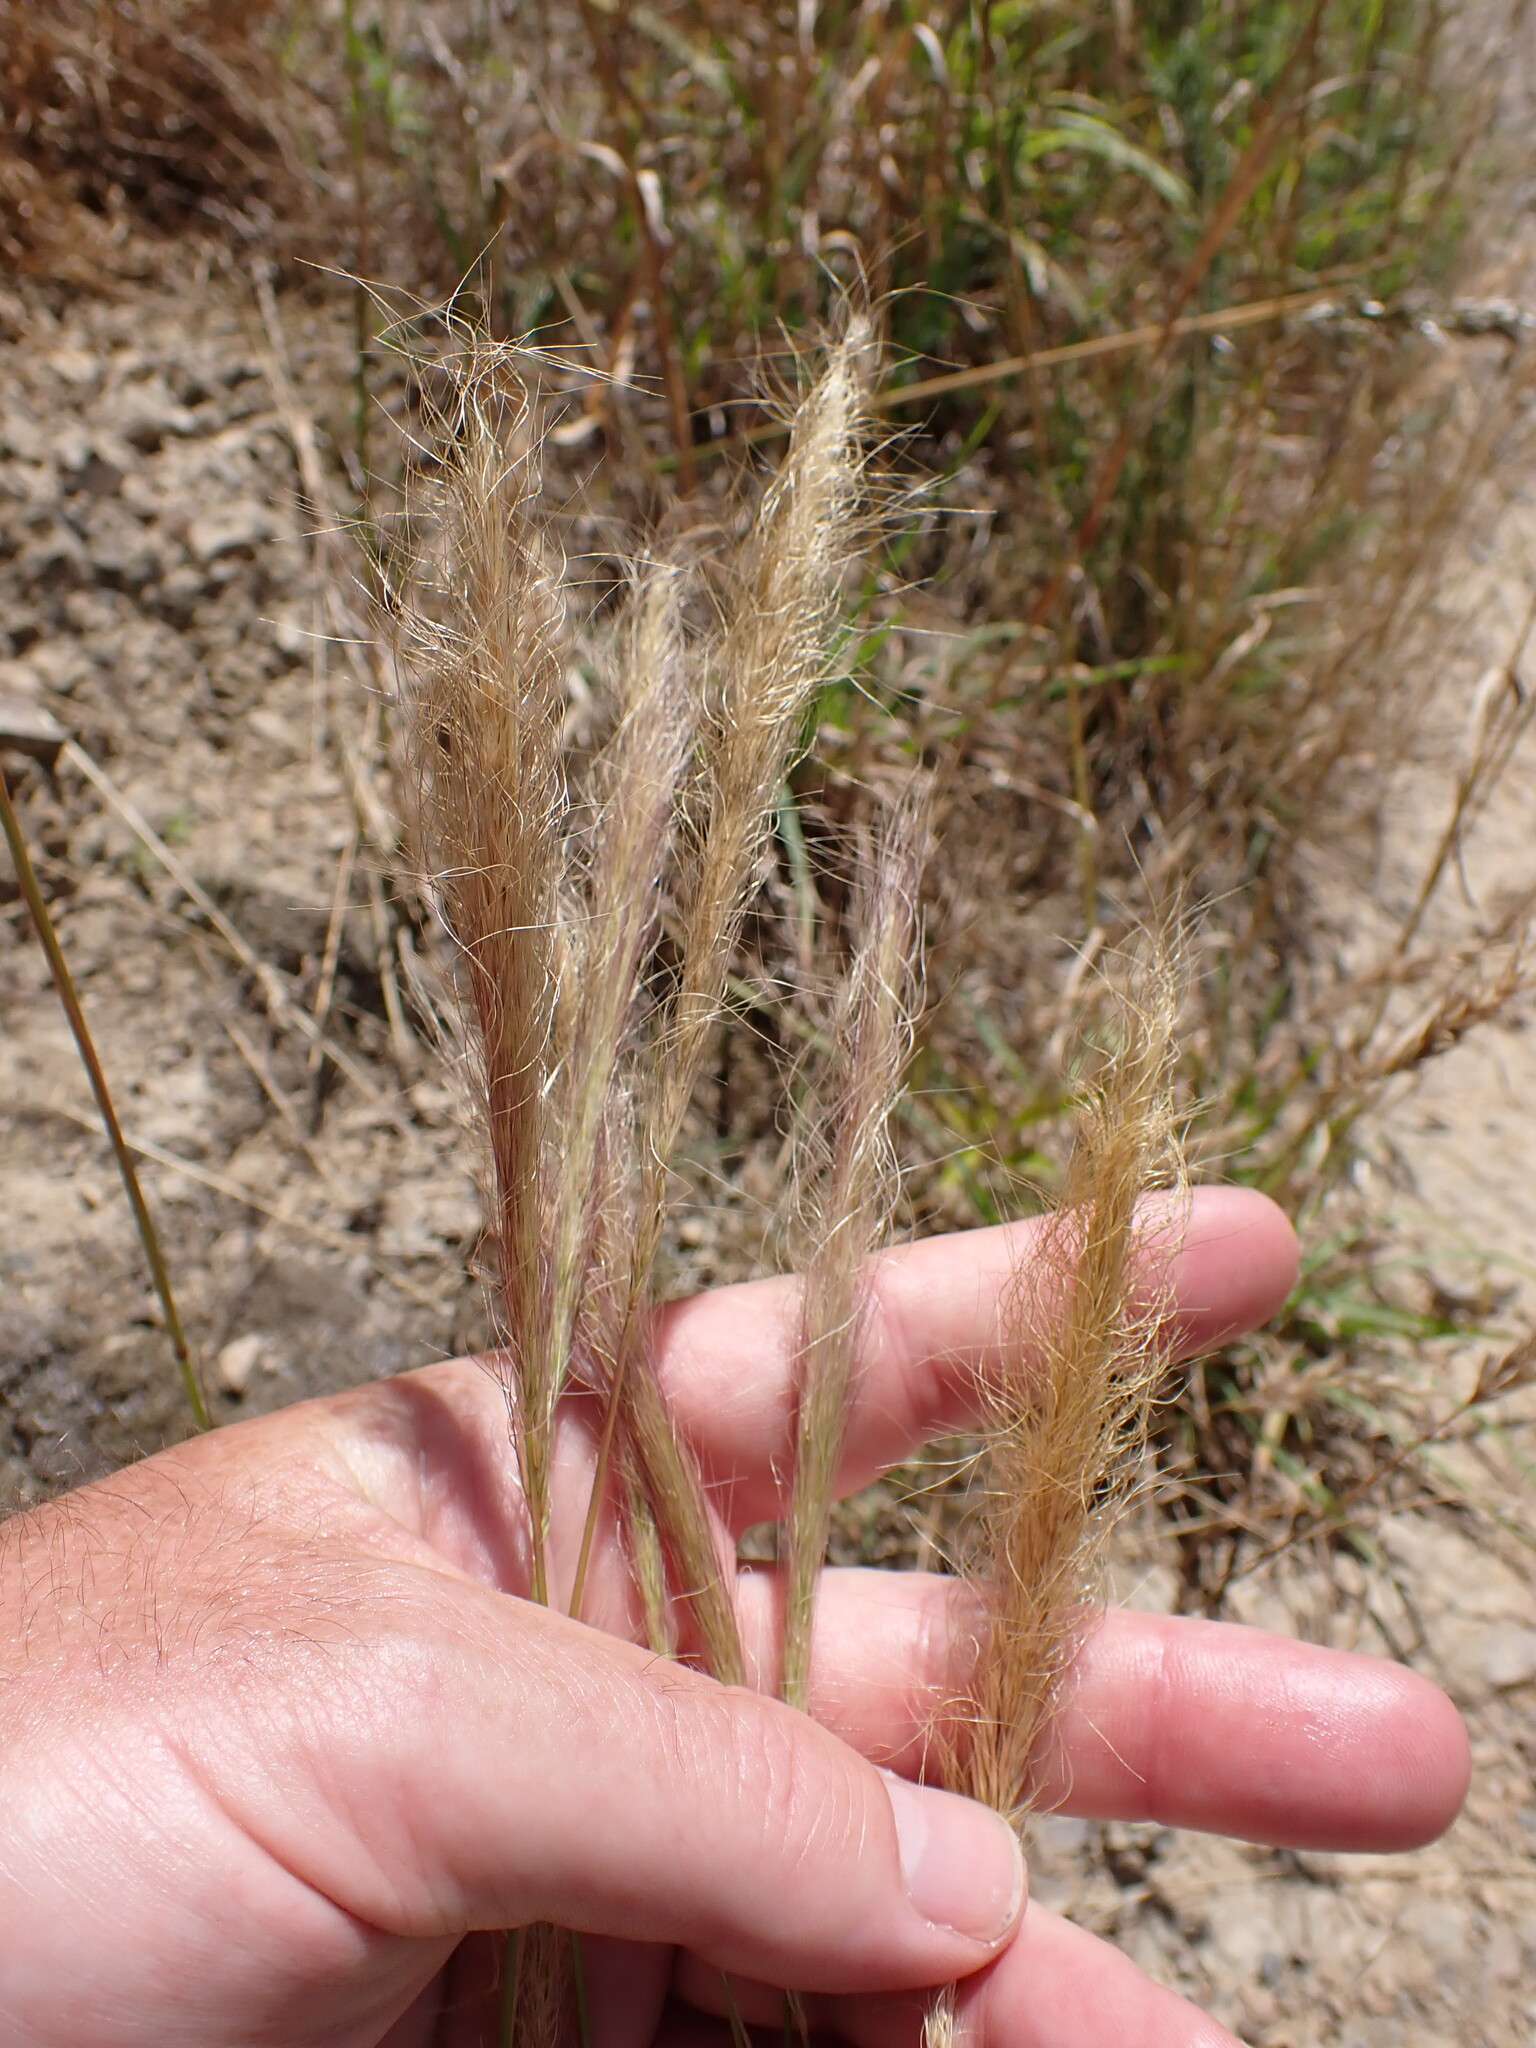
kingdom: Plantae
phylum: Tracheophyta
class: Liliopsida
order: Poales
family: Poaceae
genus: Dichelachne
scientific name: Dichelachne crinita
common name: Clovenfoot plumegrass
